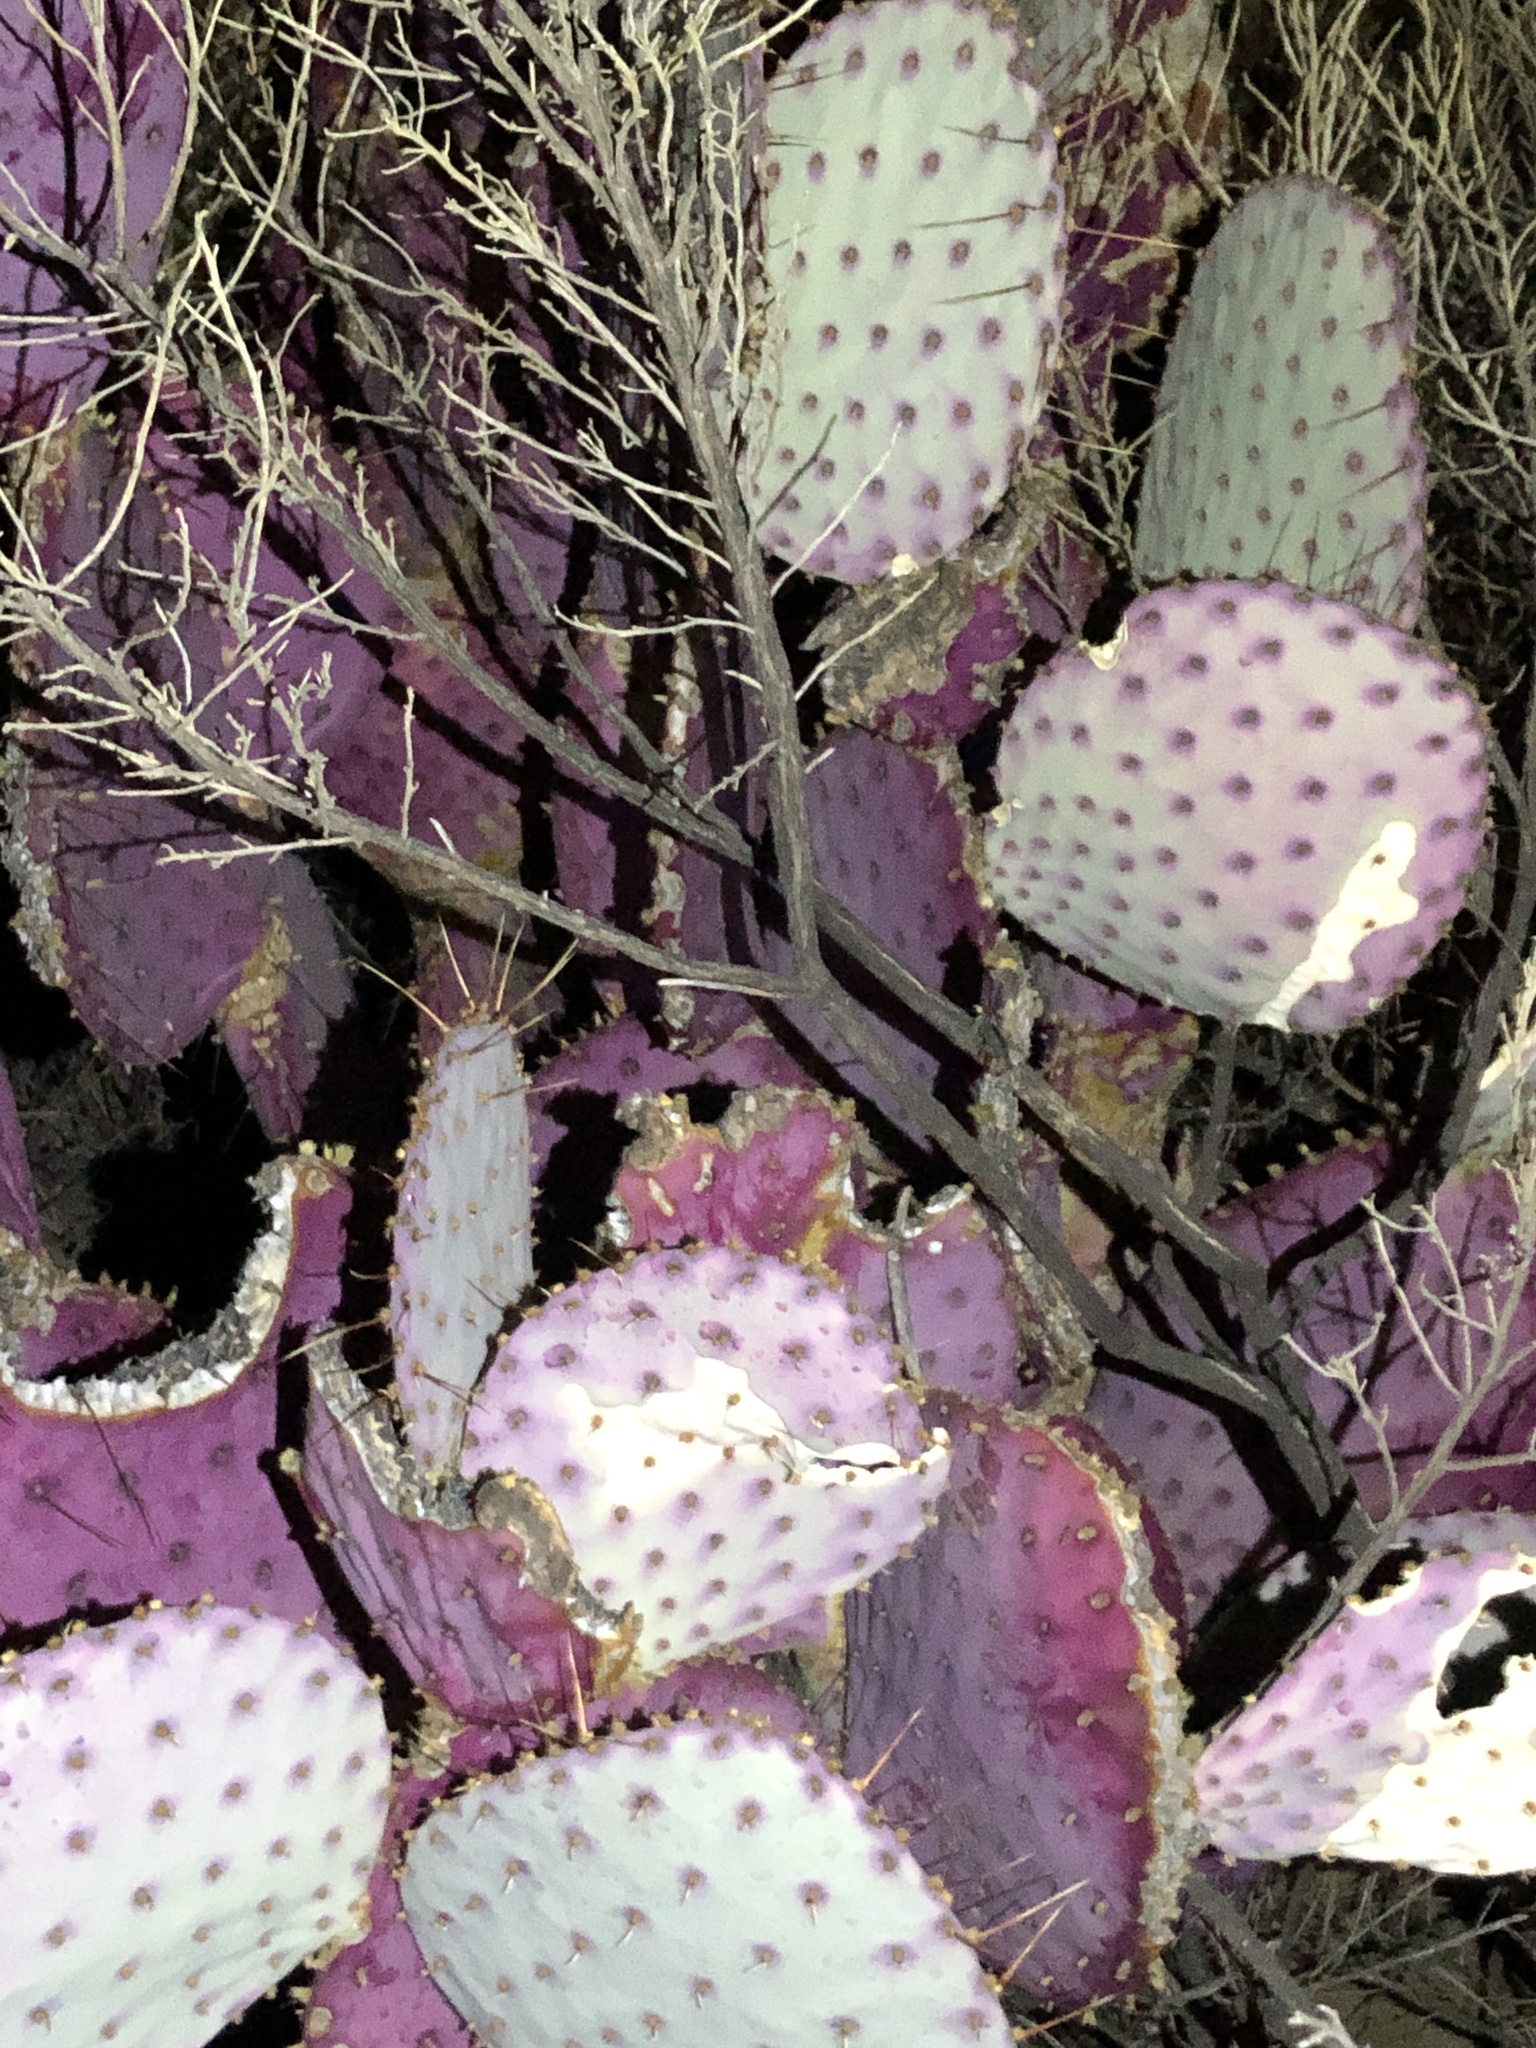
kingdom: Plantae
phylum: Tracheophyta
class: Magnoliopsida
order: Caryophyllales
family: Cactaceae
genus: Opuntia
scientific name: Opuntia gosseliniana
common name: Violet prickly-pear
